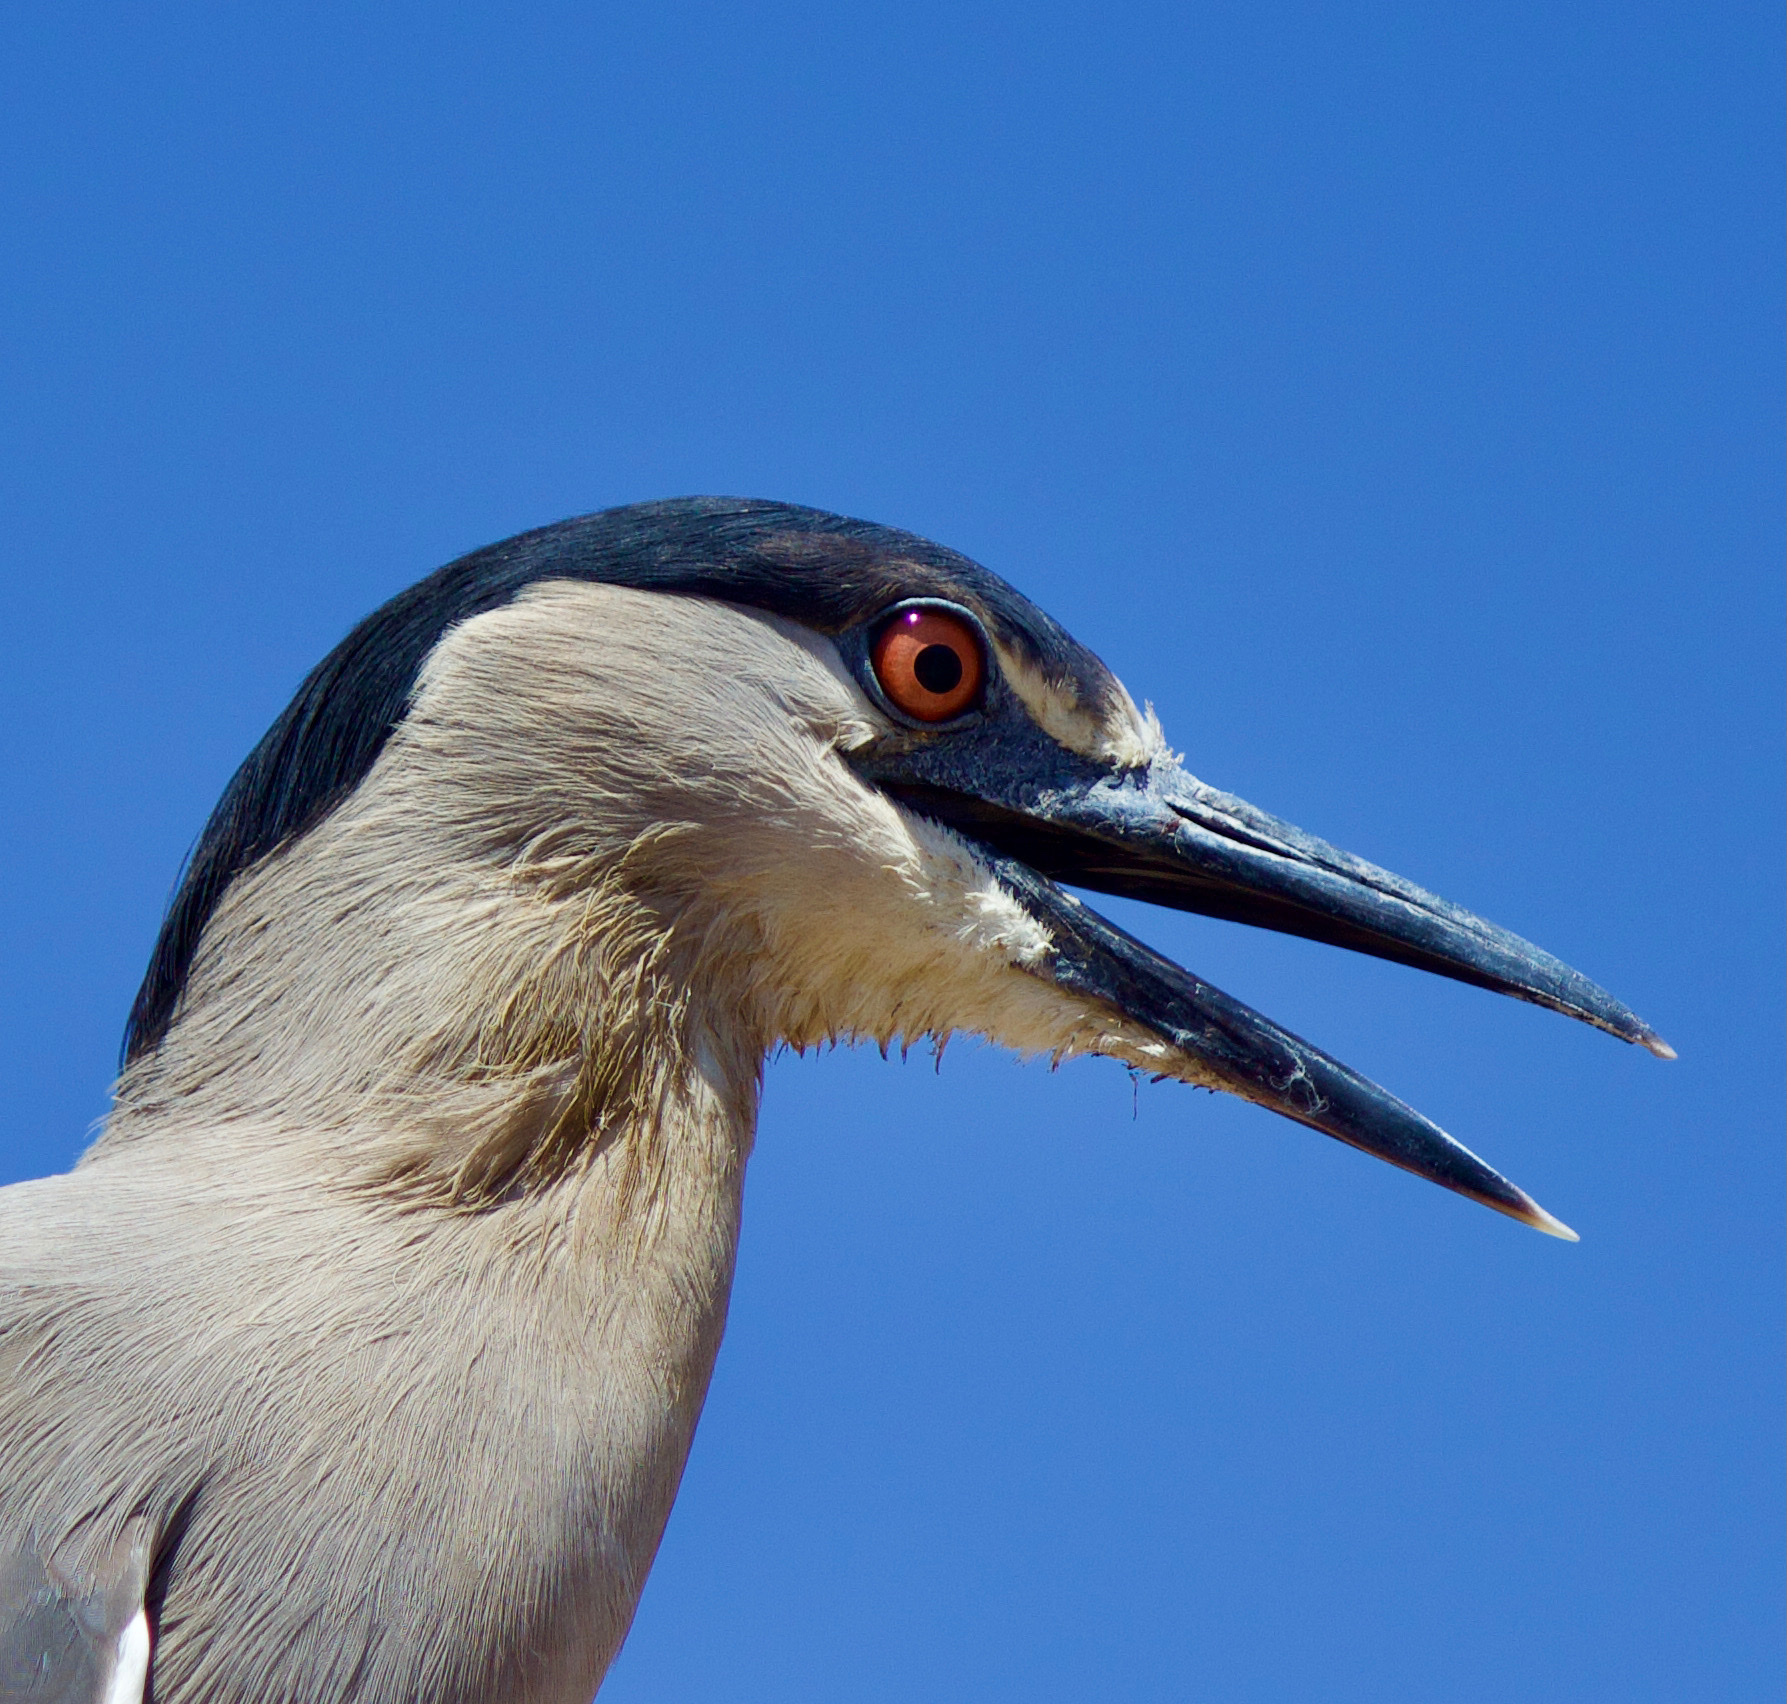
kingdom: Animalia
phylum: Chordata
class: Aves
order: Pelecaniformes
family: Ardeidae
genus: Nycticorax
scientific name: Nycticorax nycticorax
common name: Black-crowned night heron
